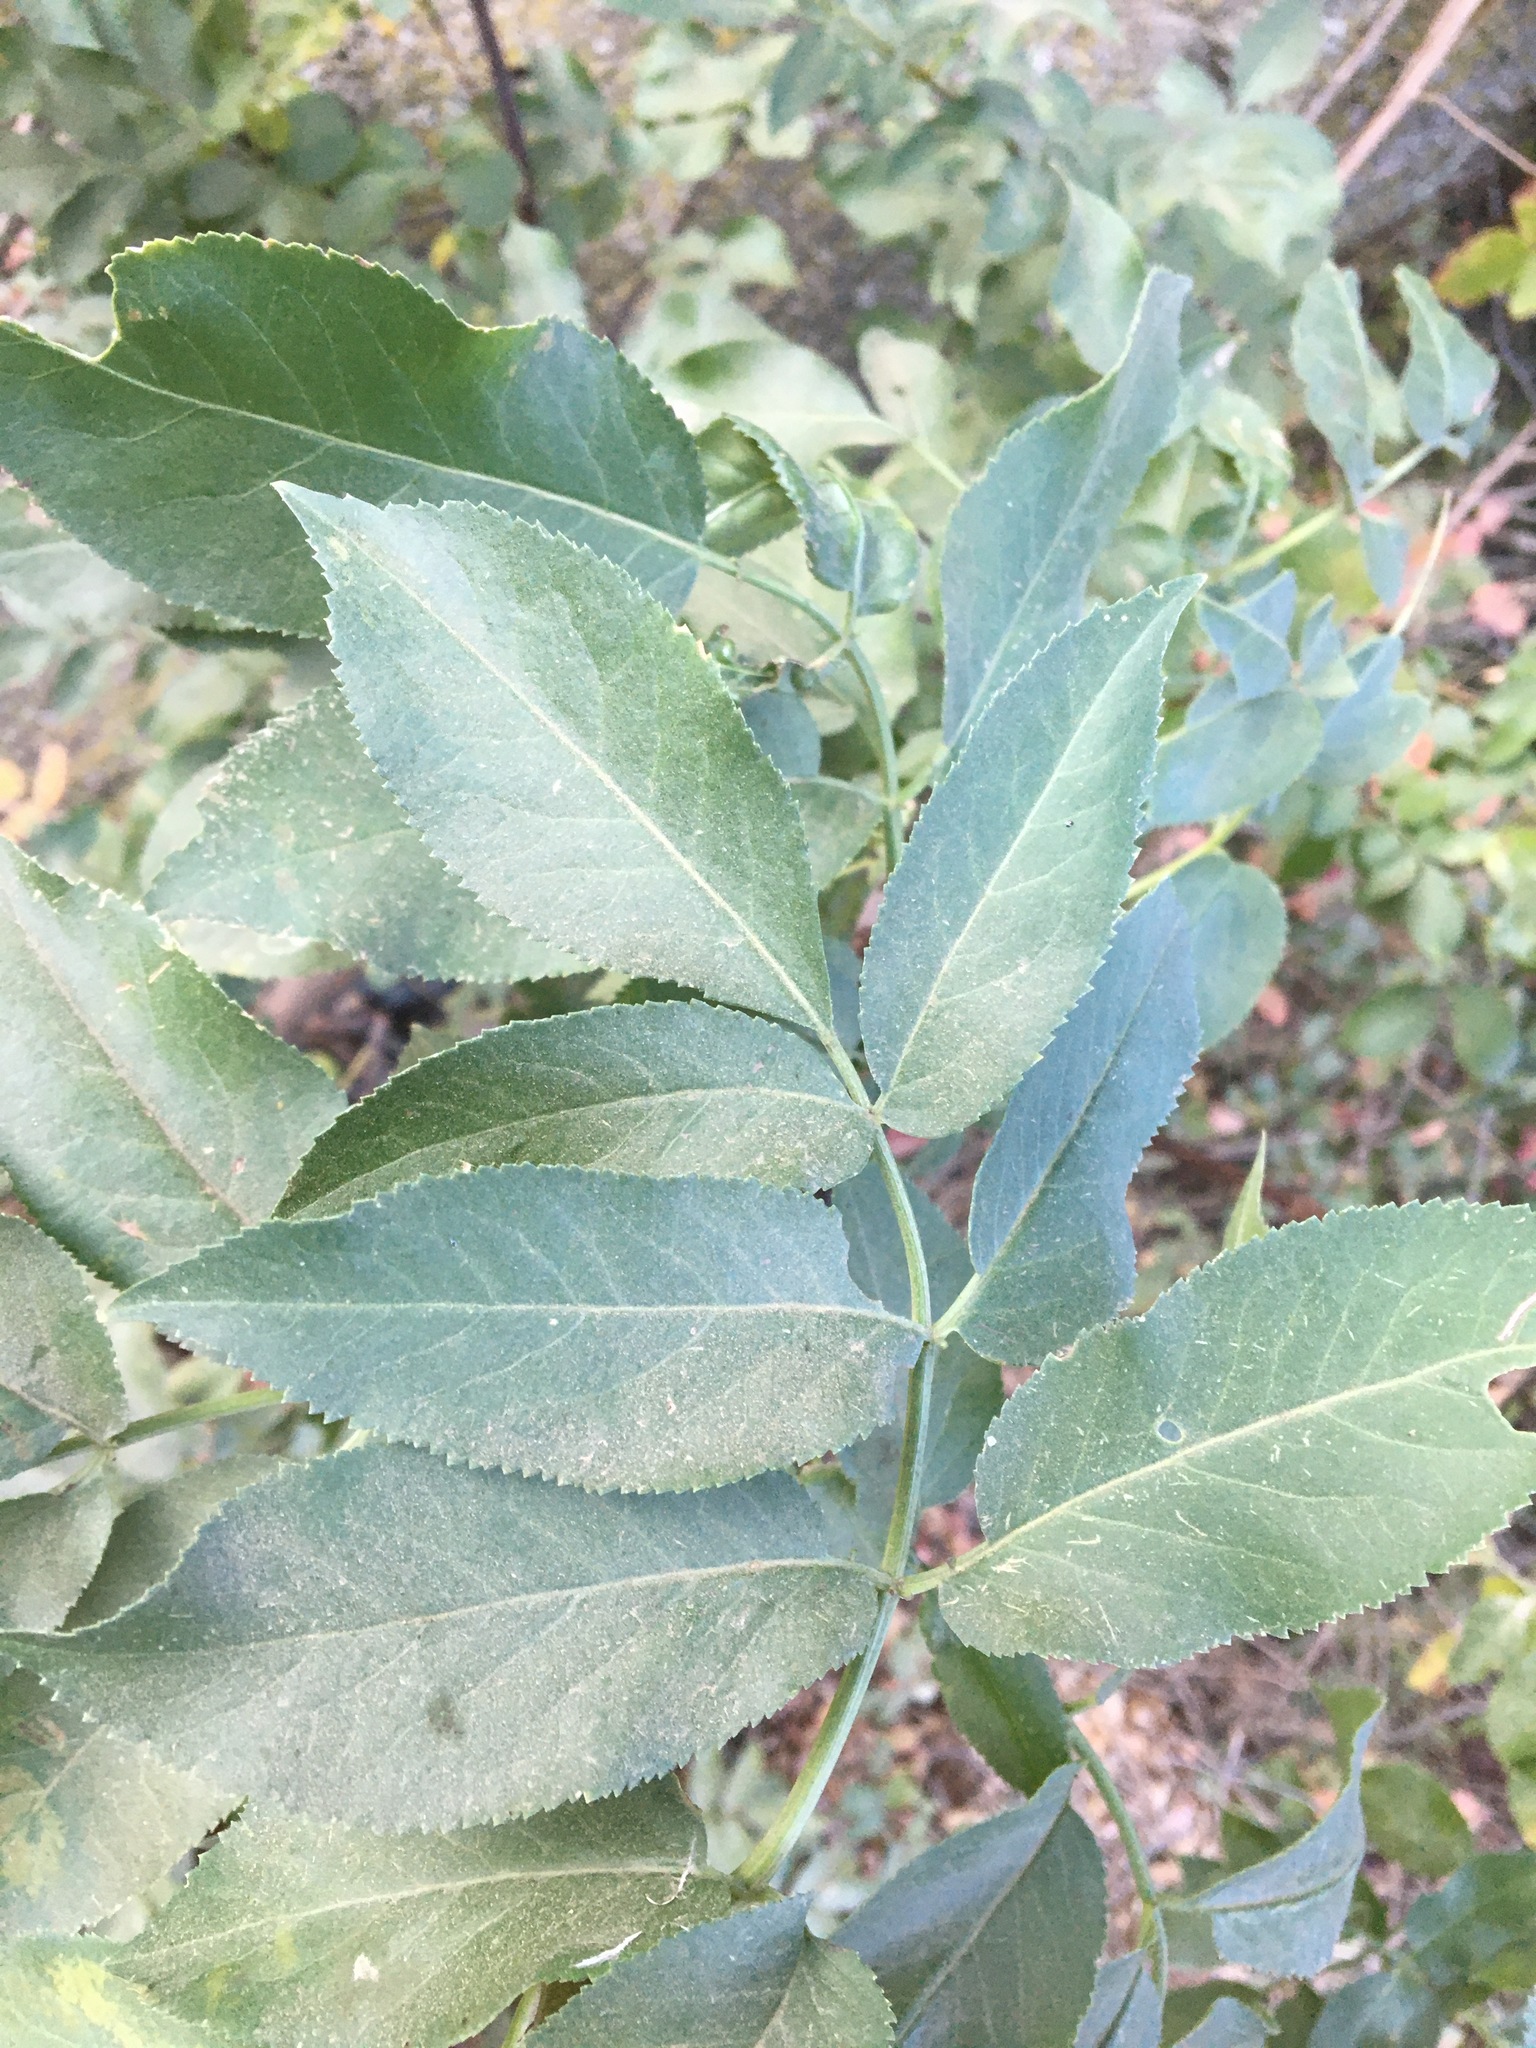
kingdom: Plantae
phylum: Tracheophyta
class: Magnoliopsida
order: Dipsacales
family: Viburnaceae
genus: Sambucus
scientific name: Sambucus cerulea
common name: Blue elder
